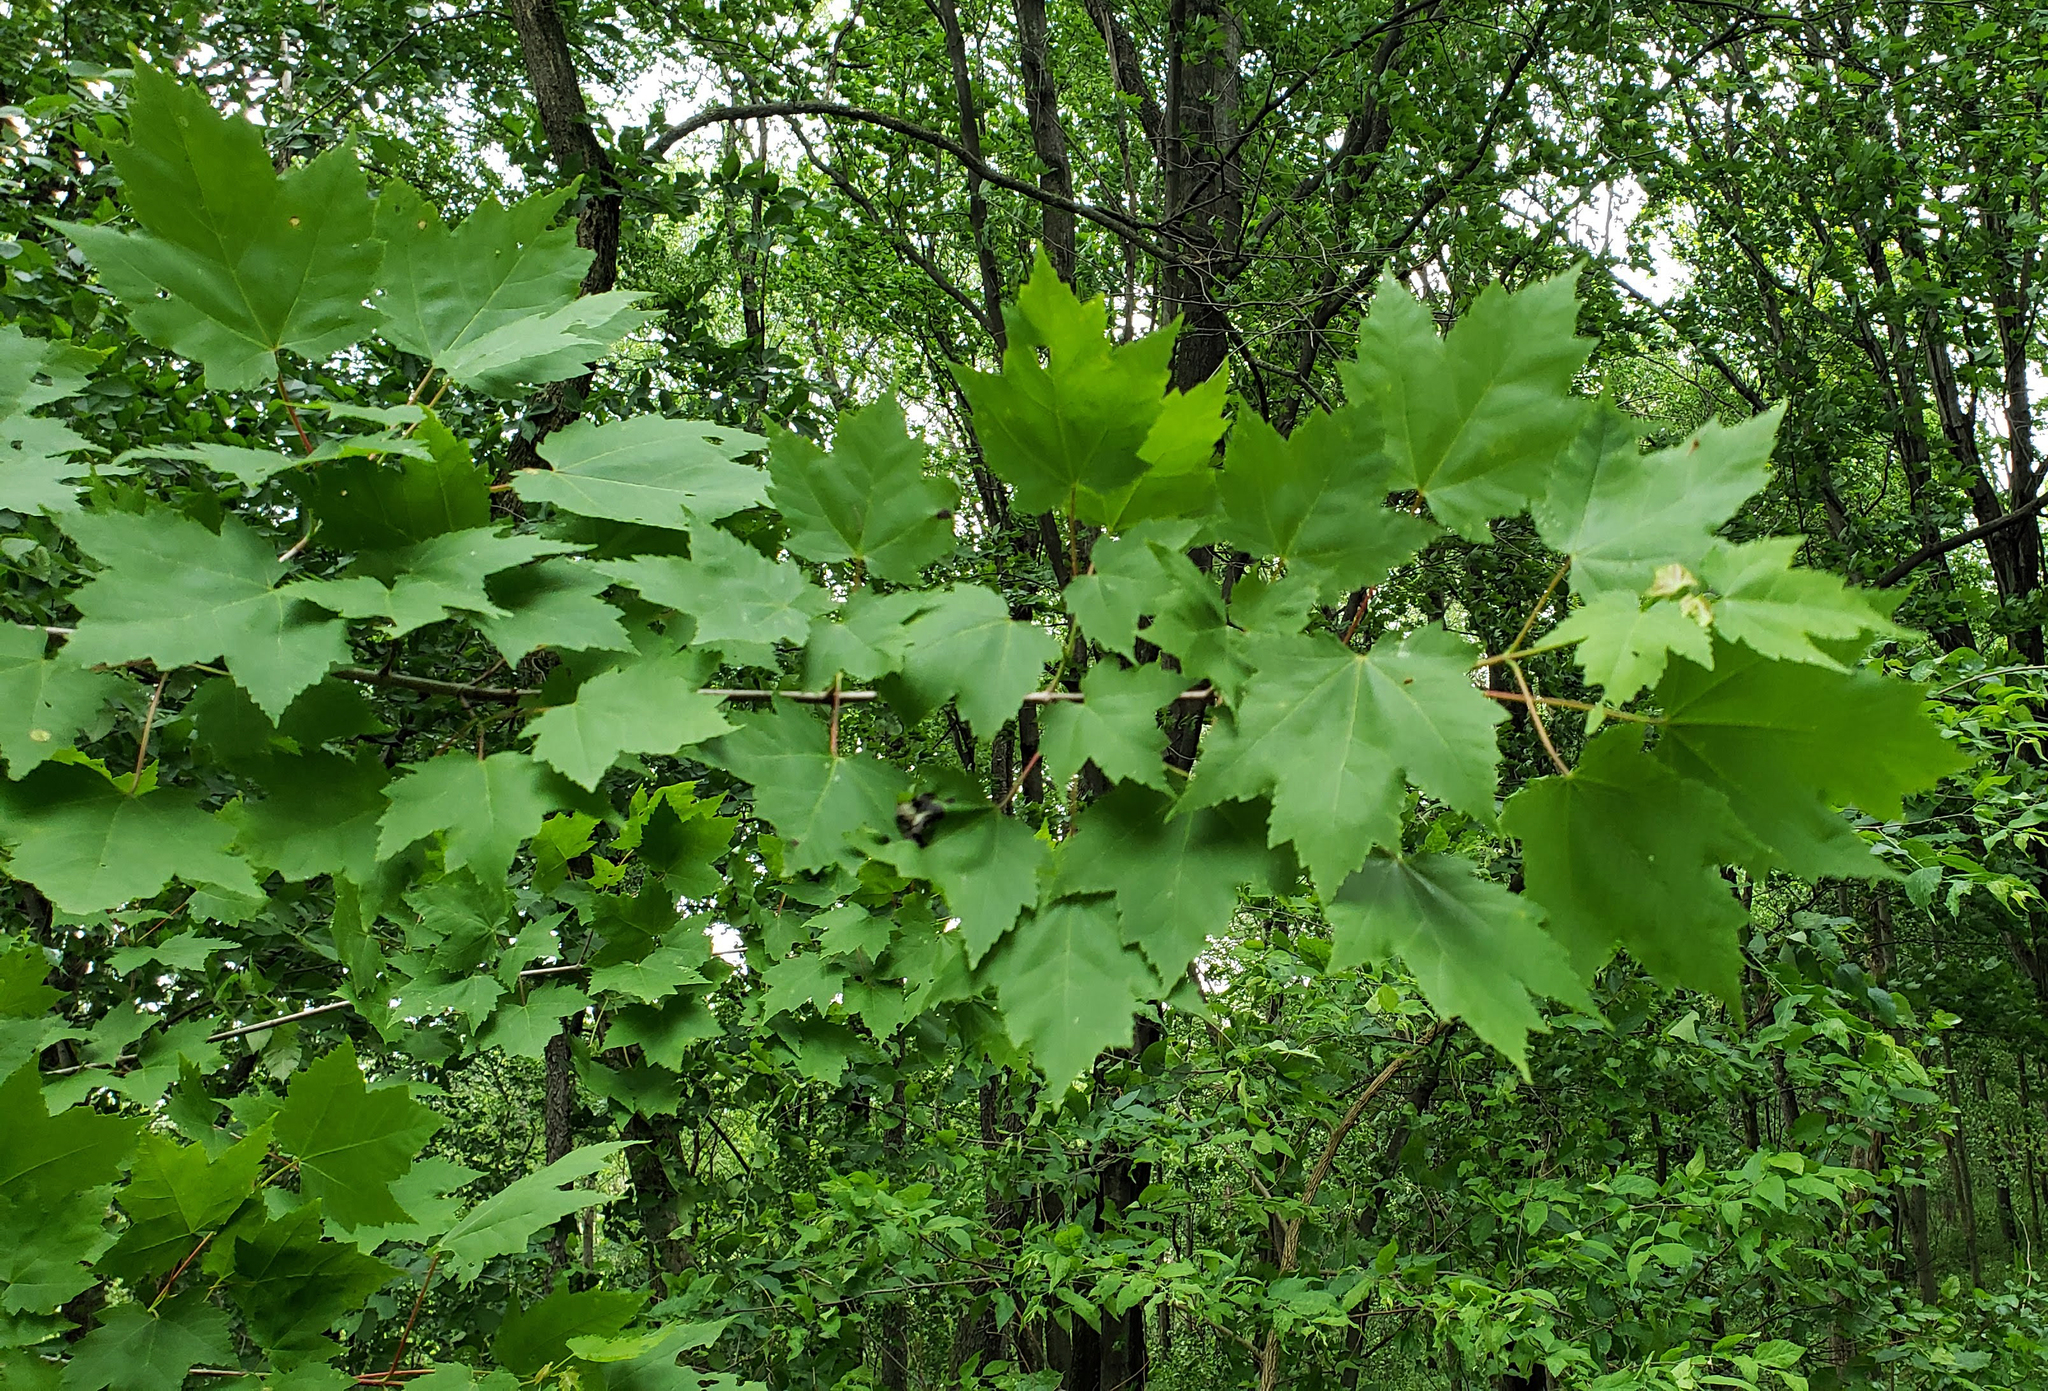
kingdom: Plantae
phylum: Tracheophyta
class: Magnoliopsida
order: Sapindales
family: Sapindaceae
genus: Acer
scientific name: Acer rubrum
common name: Red maple
